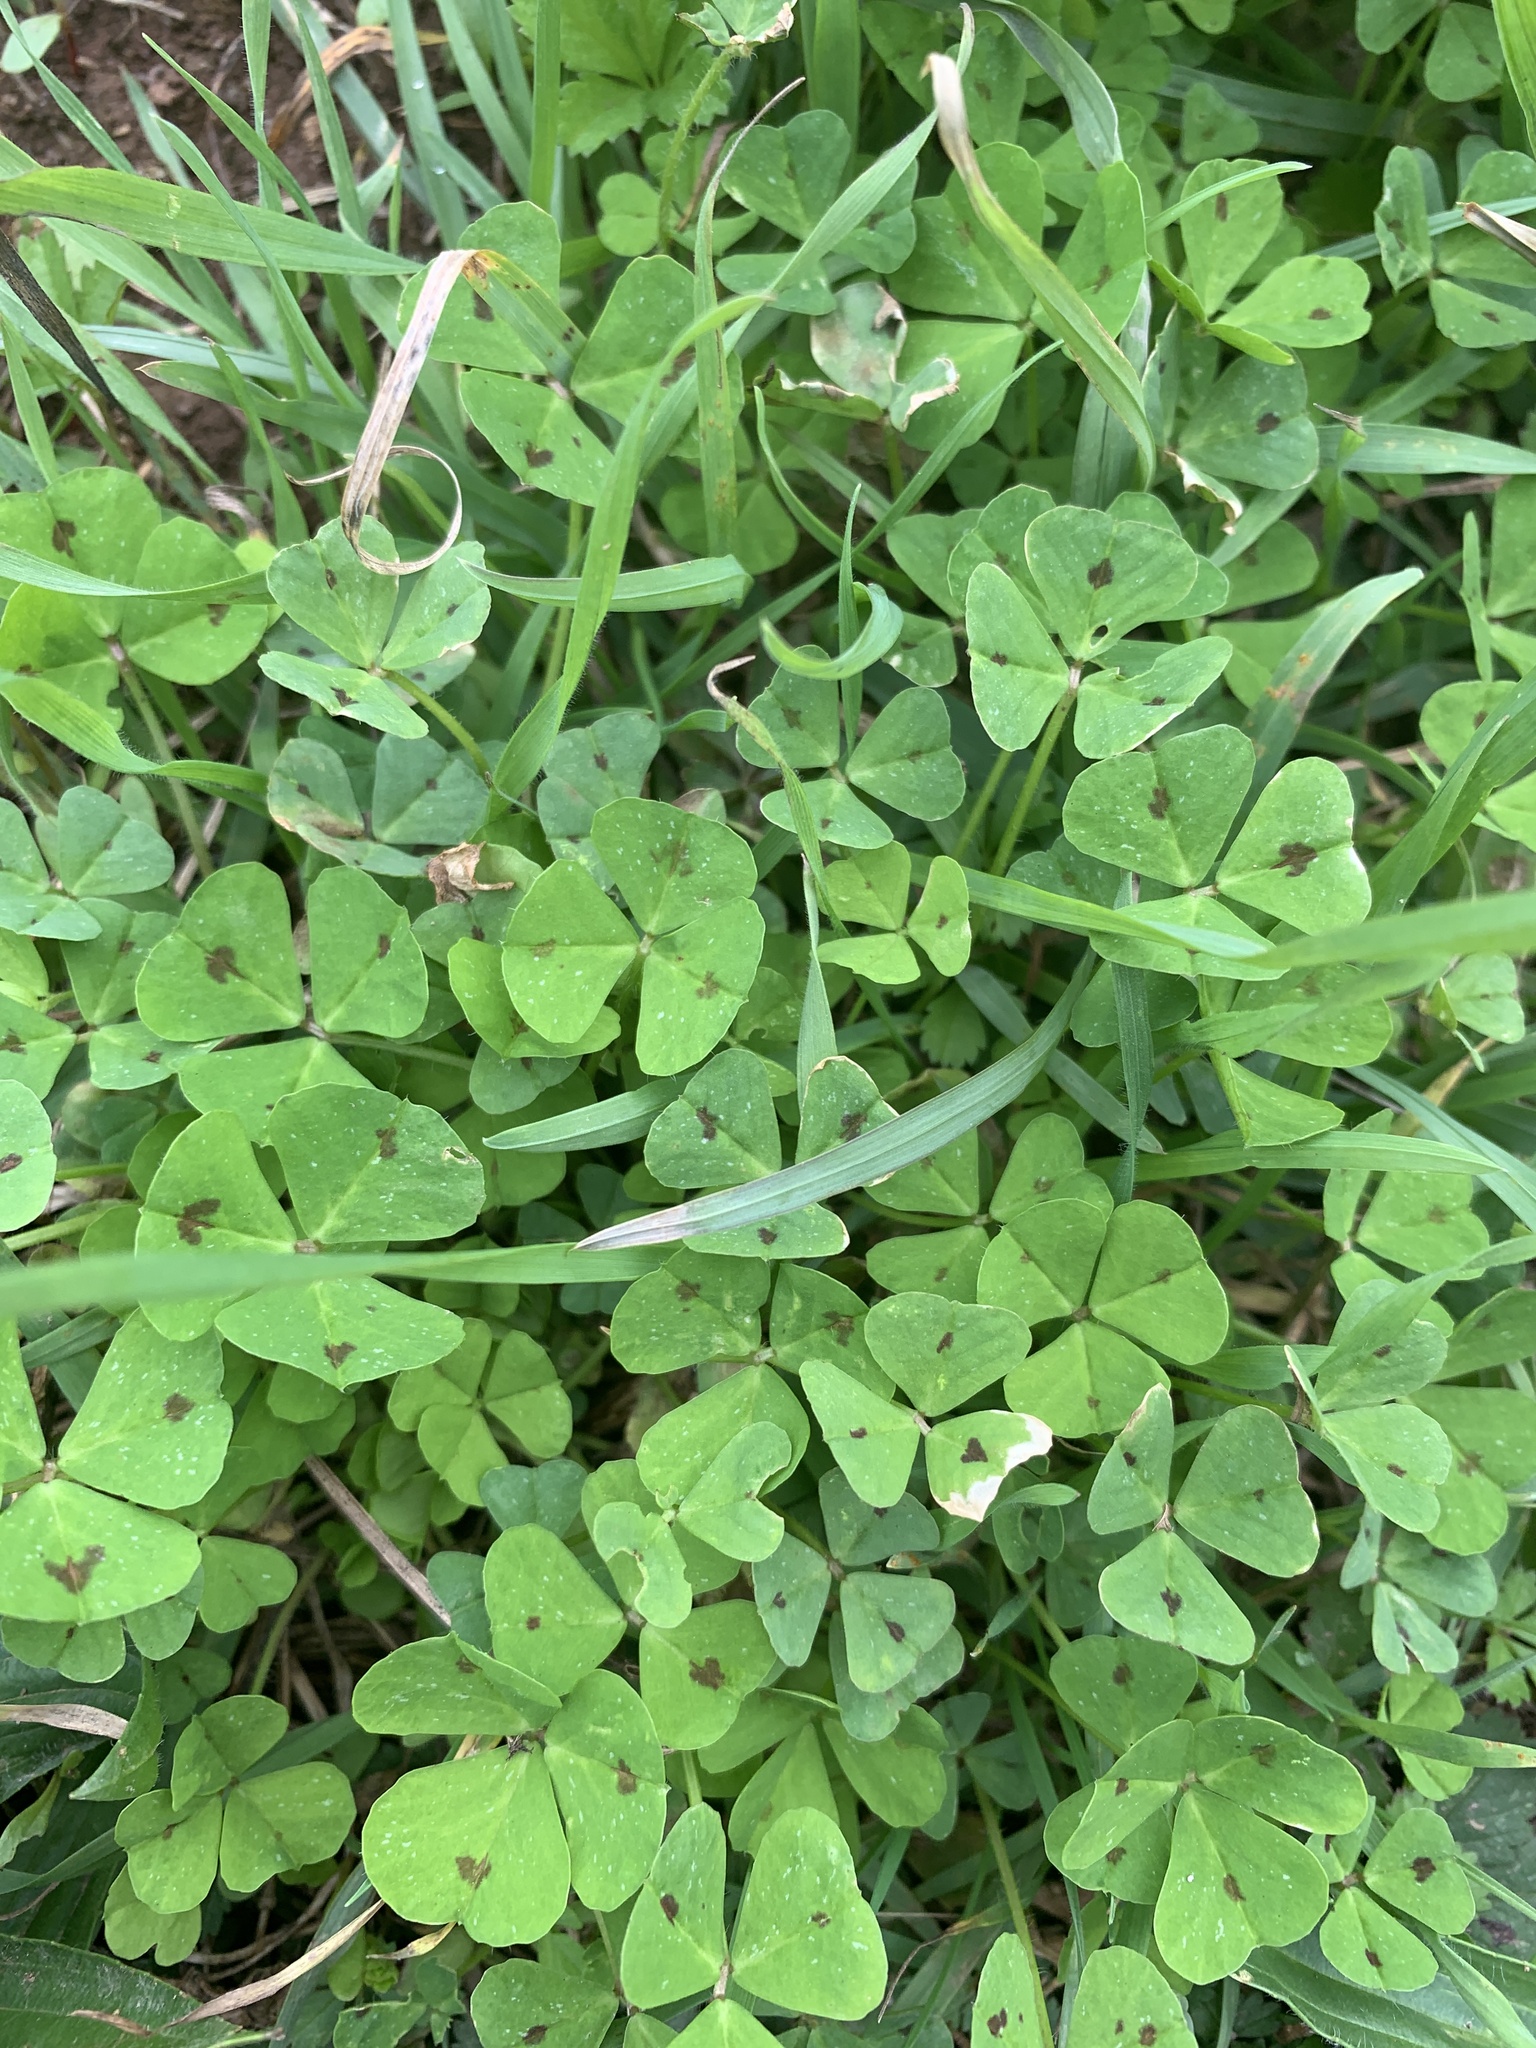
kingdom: Plantae
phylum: Tracheophyta
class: Magnoliopsida
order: Fabales
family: Fabaceae
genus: Medicago
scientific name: Medicago arabica
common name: Spotted medick
